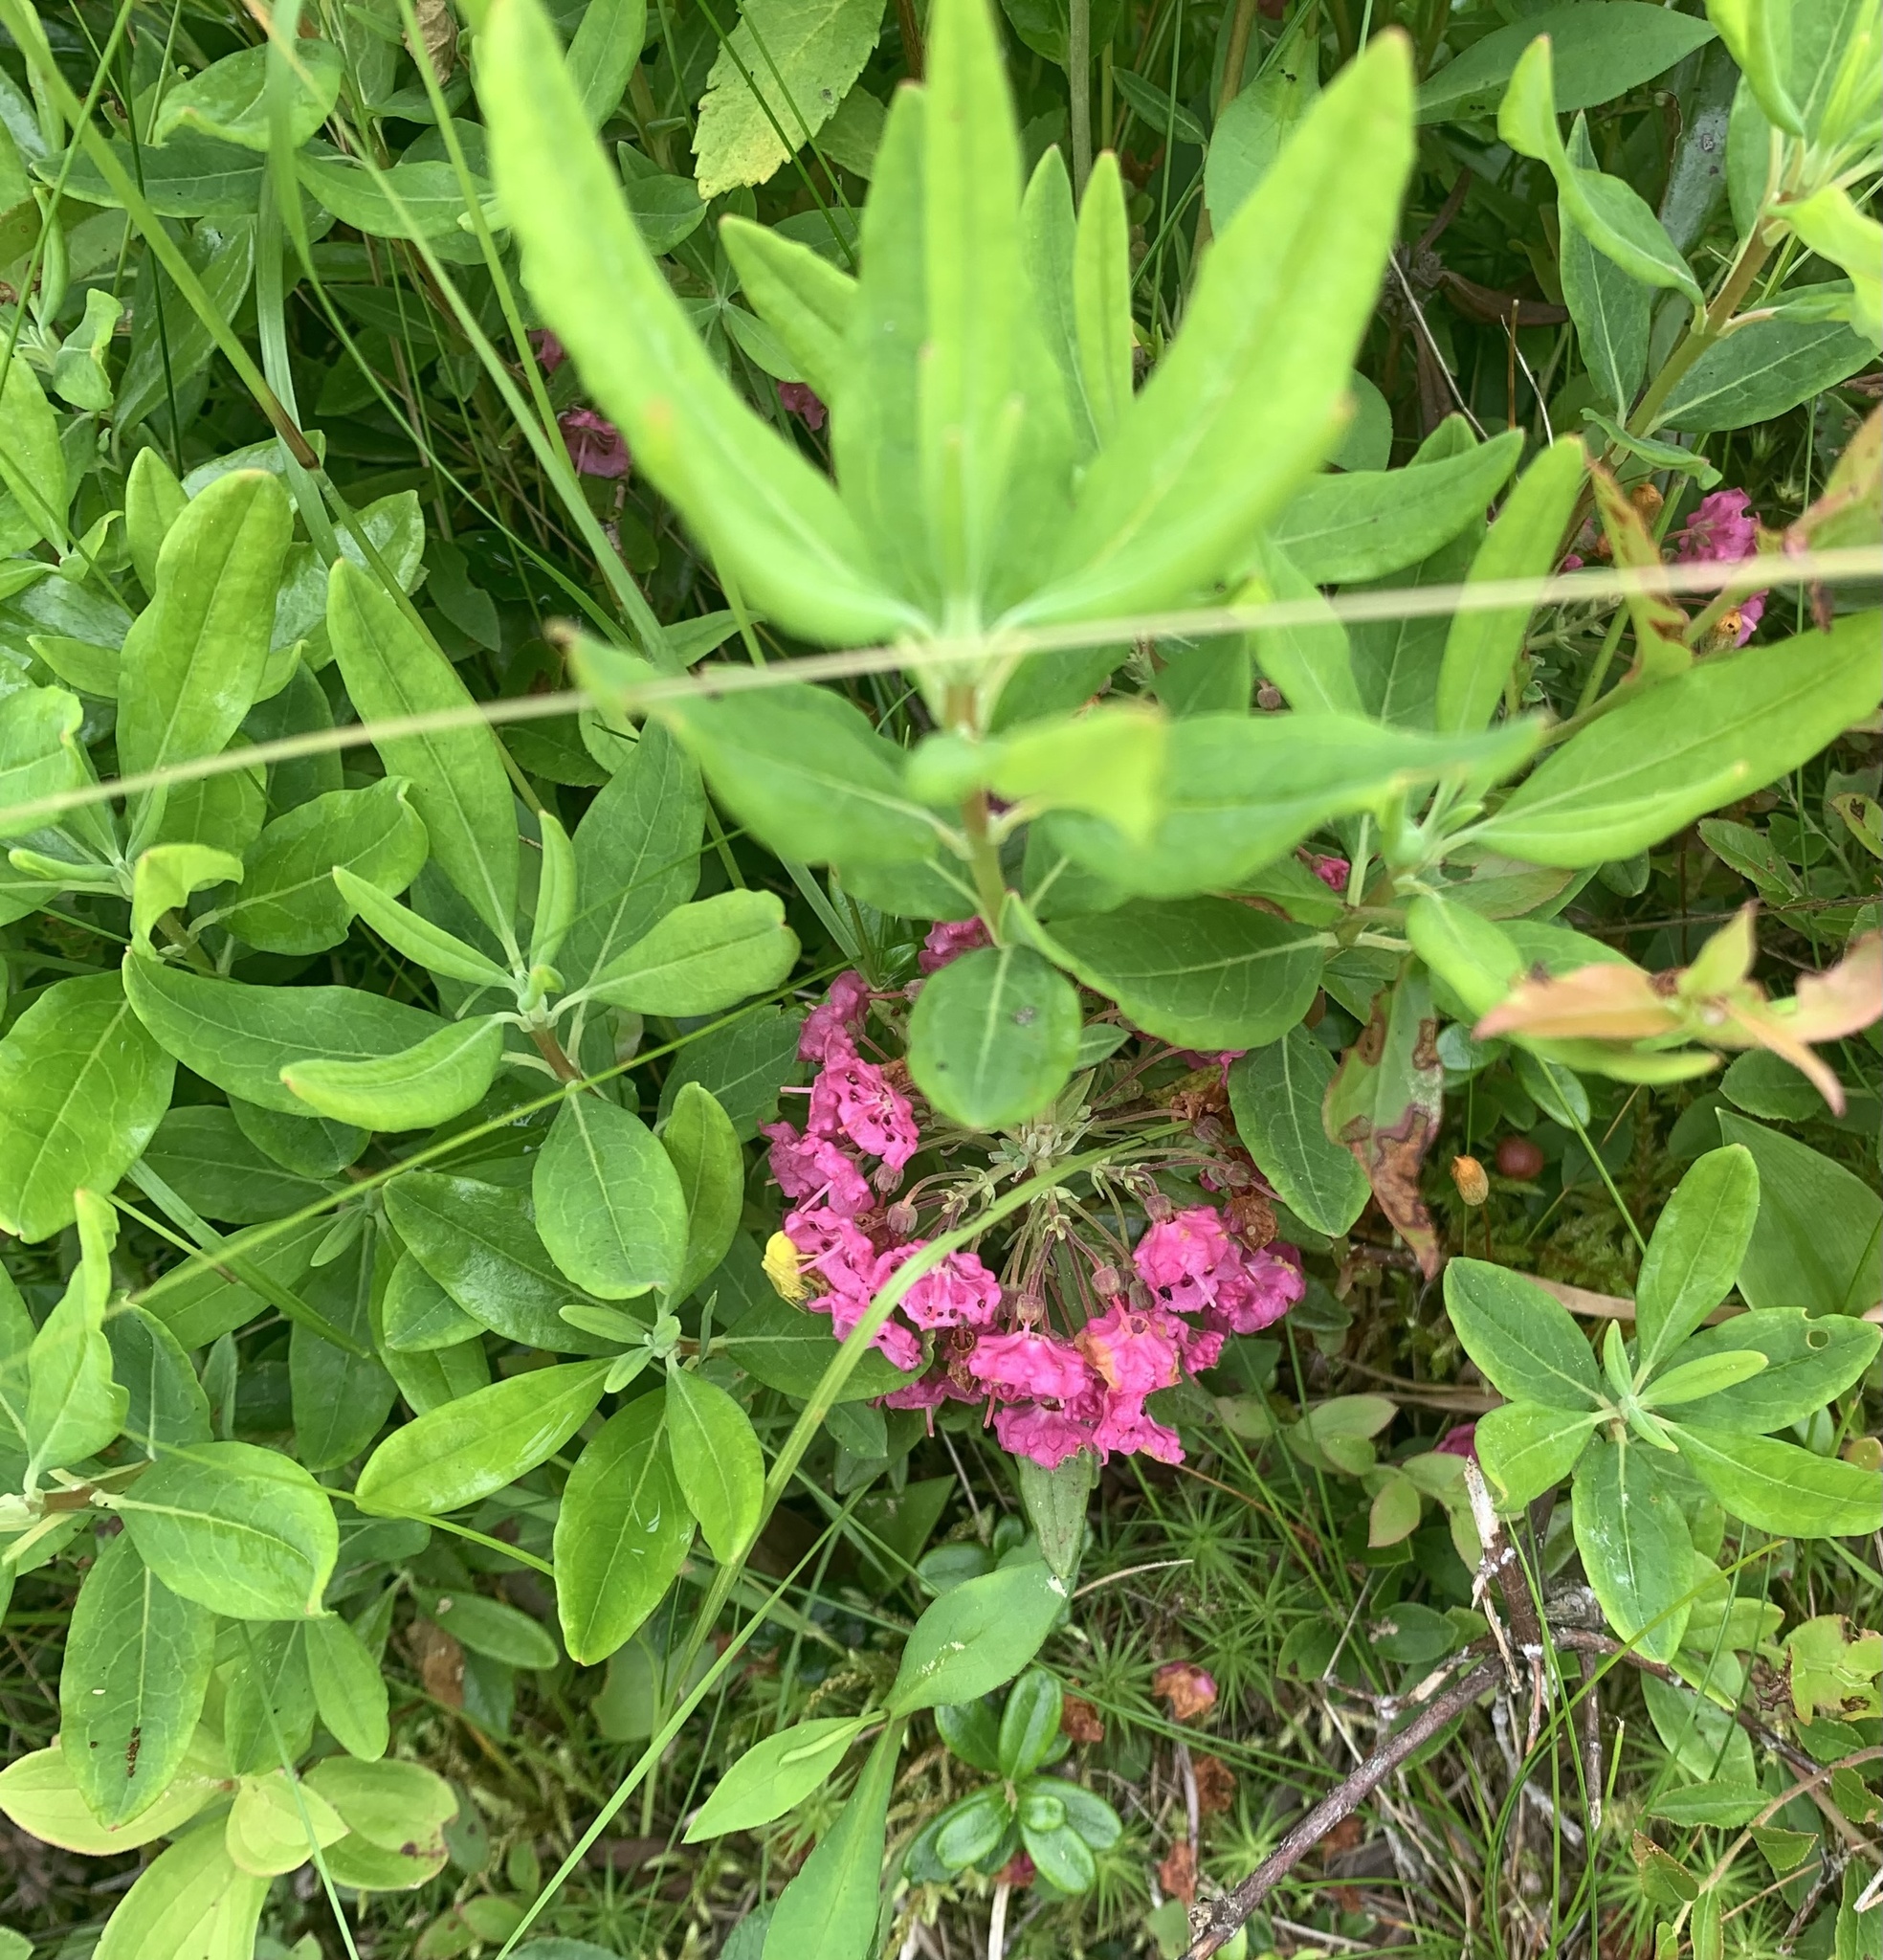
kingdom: Plantae
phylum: Tracheophyta
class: Magnoliopsida
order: Ericales
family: Ericaceae
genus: Kalmia
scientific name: Kalmia angustifolia
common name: Sheep-laurel
